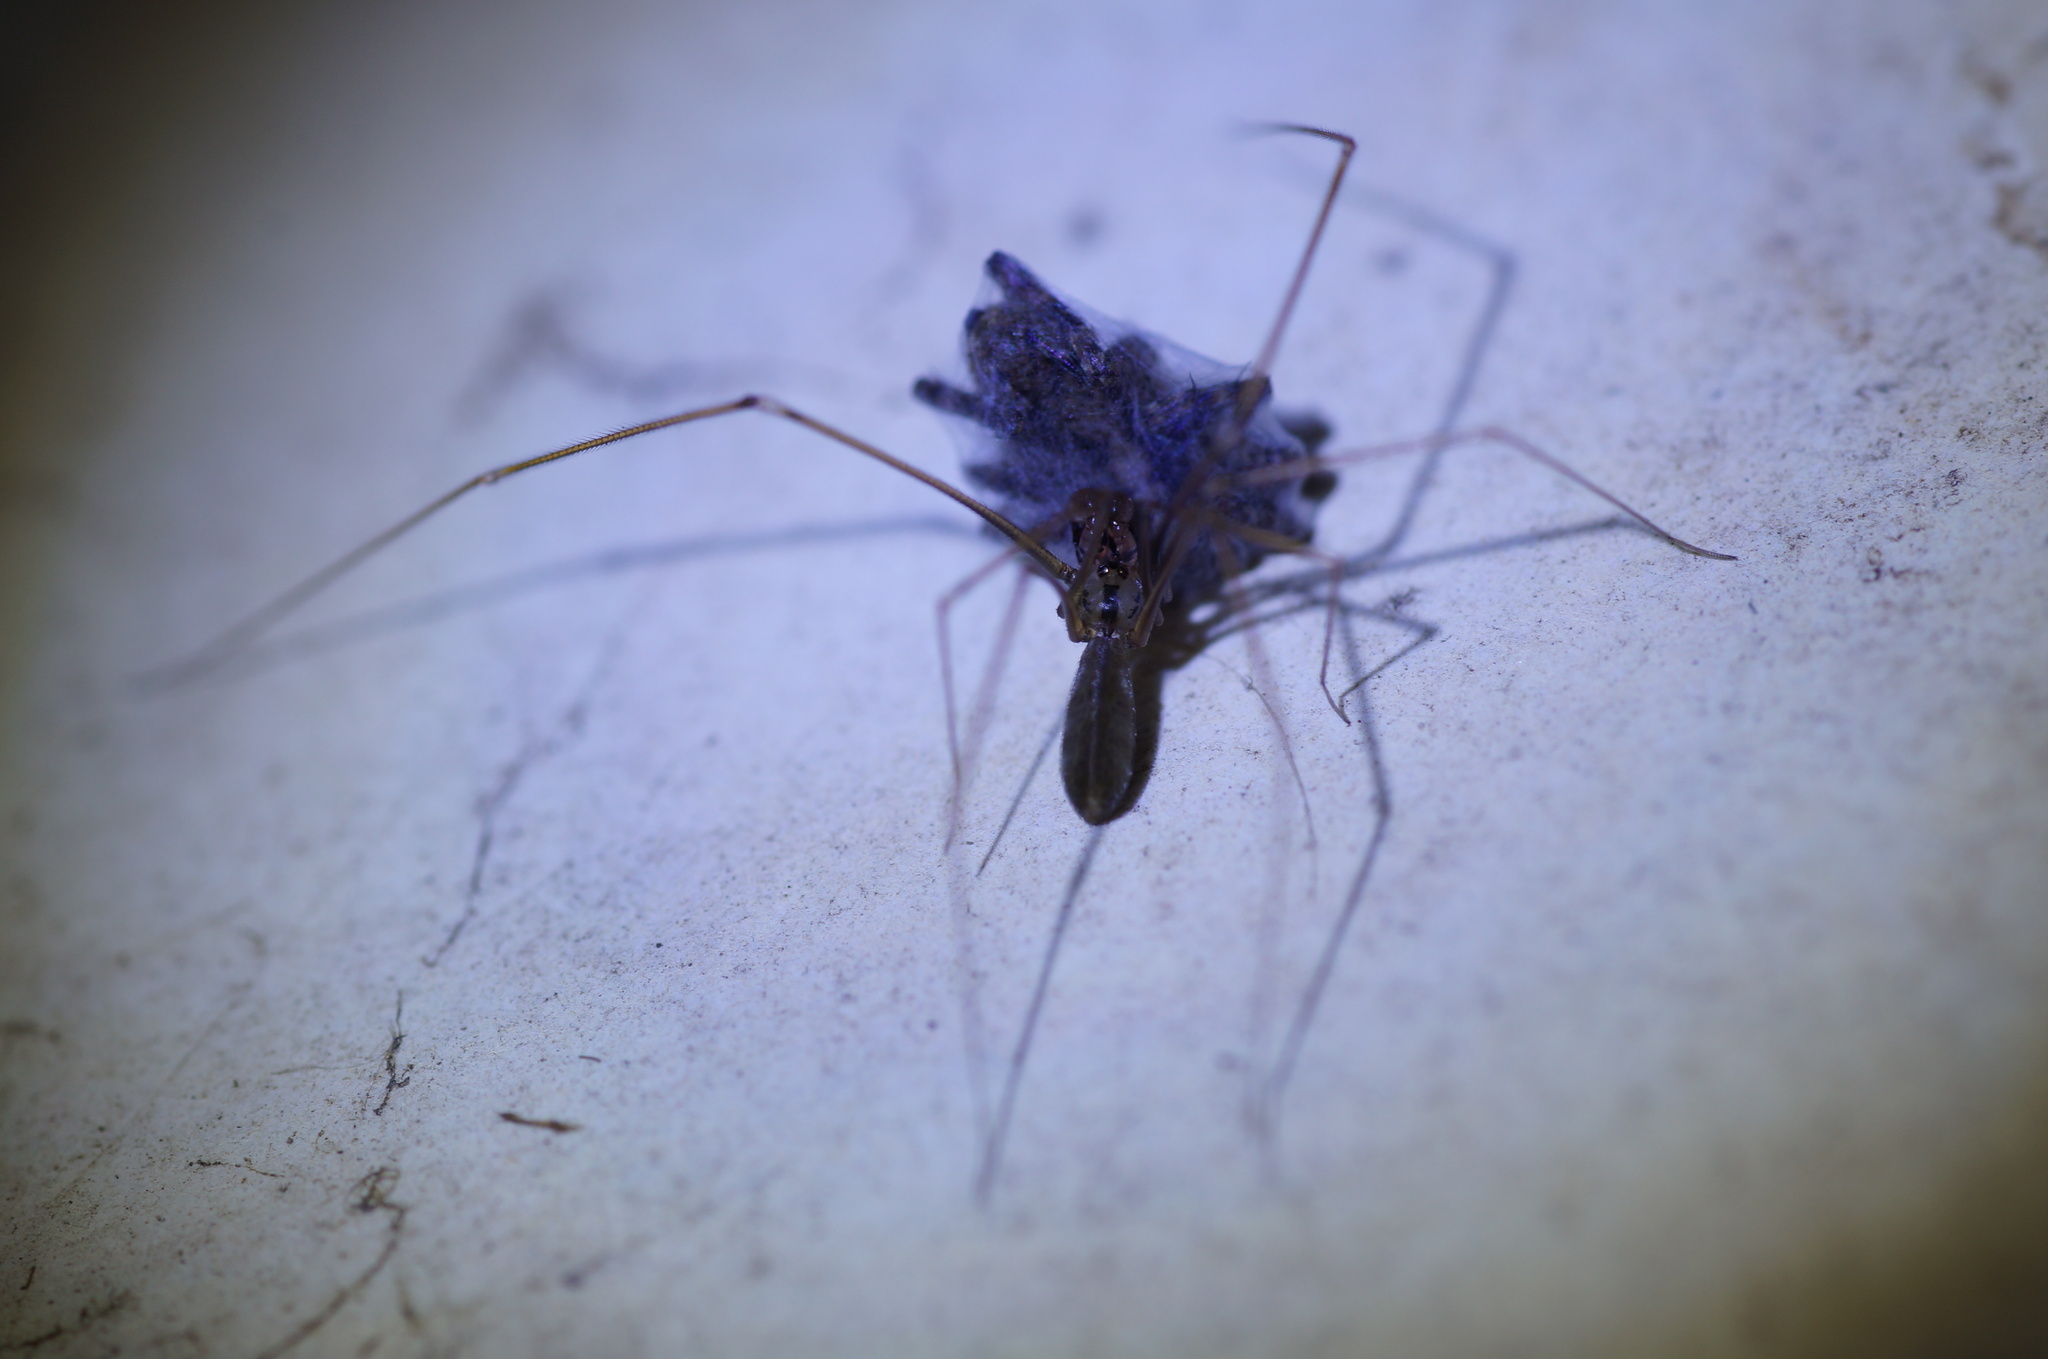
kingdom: Animalia
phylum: Arthropoda
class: Arachnida
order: Araneae
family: Pholcidae
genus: Pholcus
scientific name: Pholcus opilionoides
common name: Daddylongleg spider
